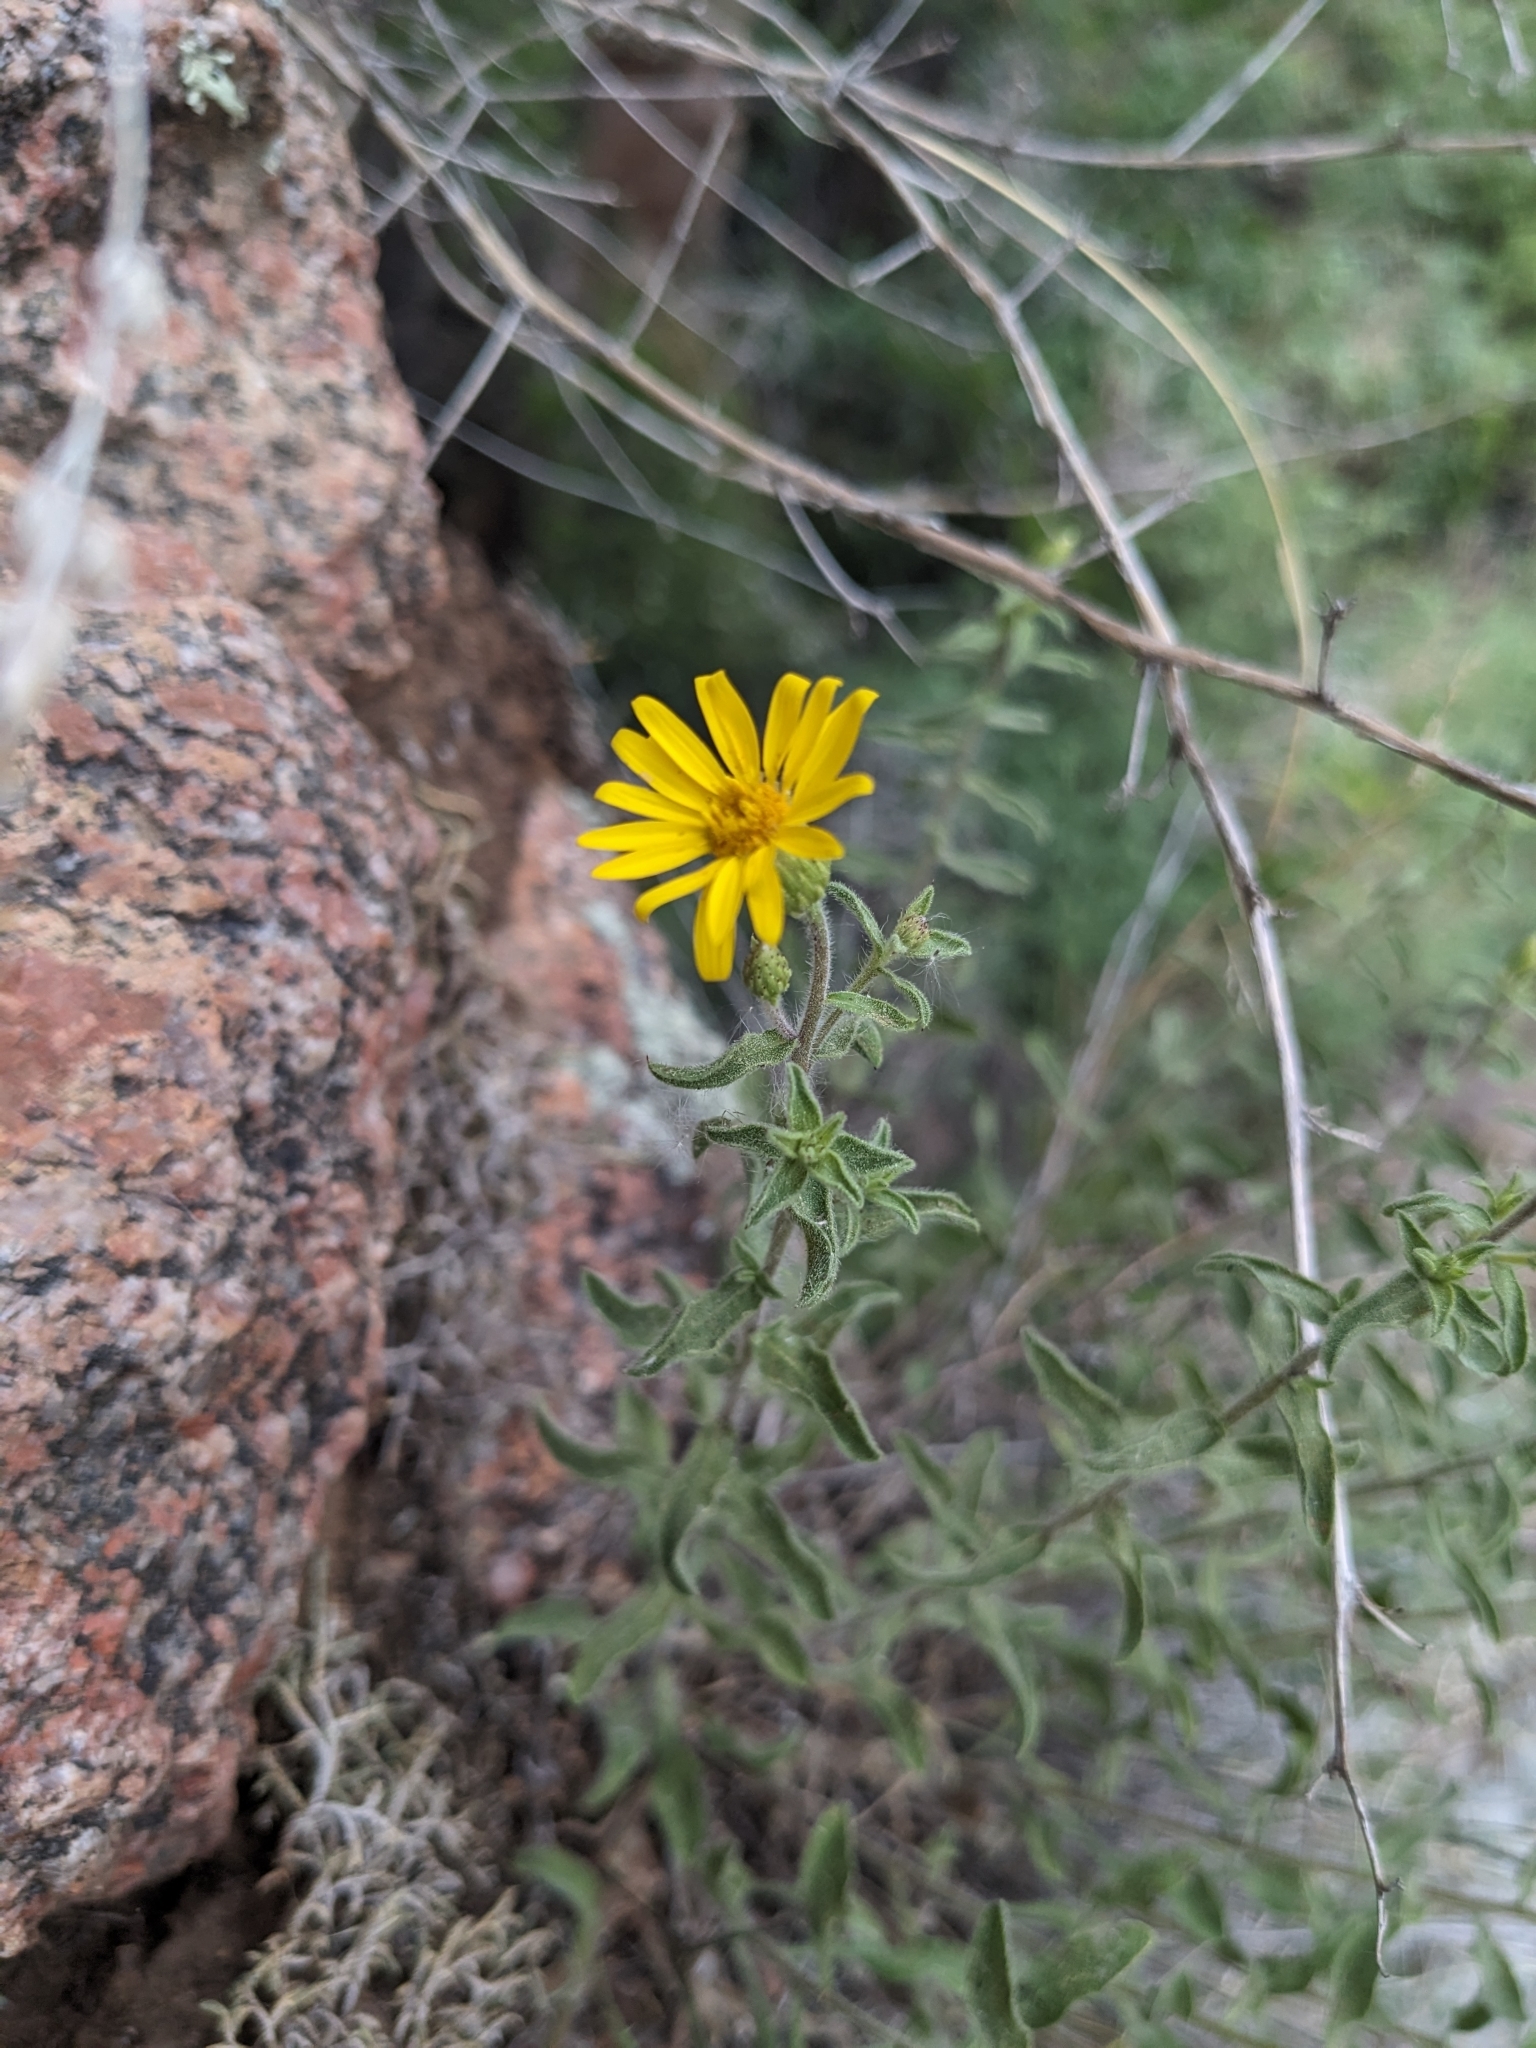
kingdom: Plantae
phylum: Tracheophyta
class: Magnoliopsida
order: Asterales
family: Asteraceae
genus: Heterotheca
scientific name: Heterotheca hirsutissima
